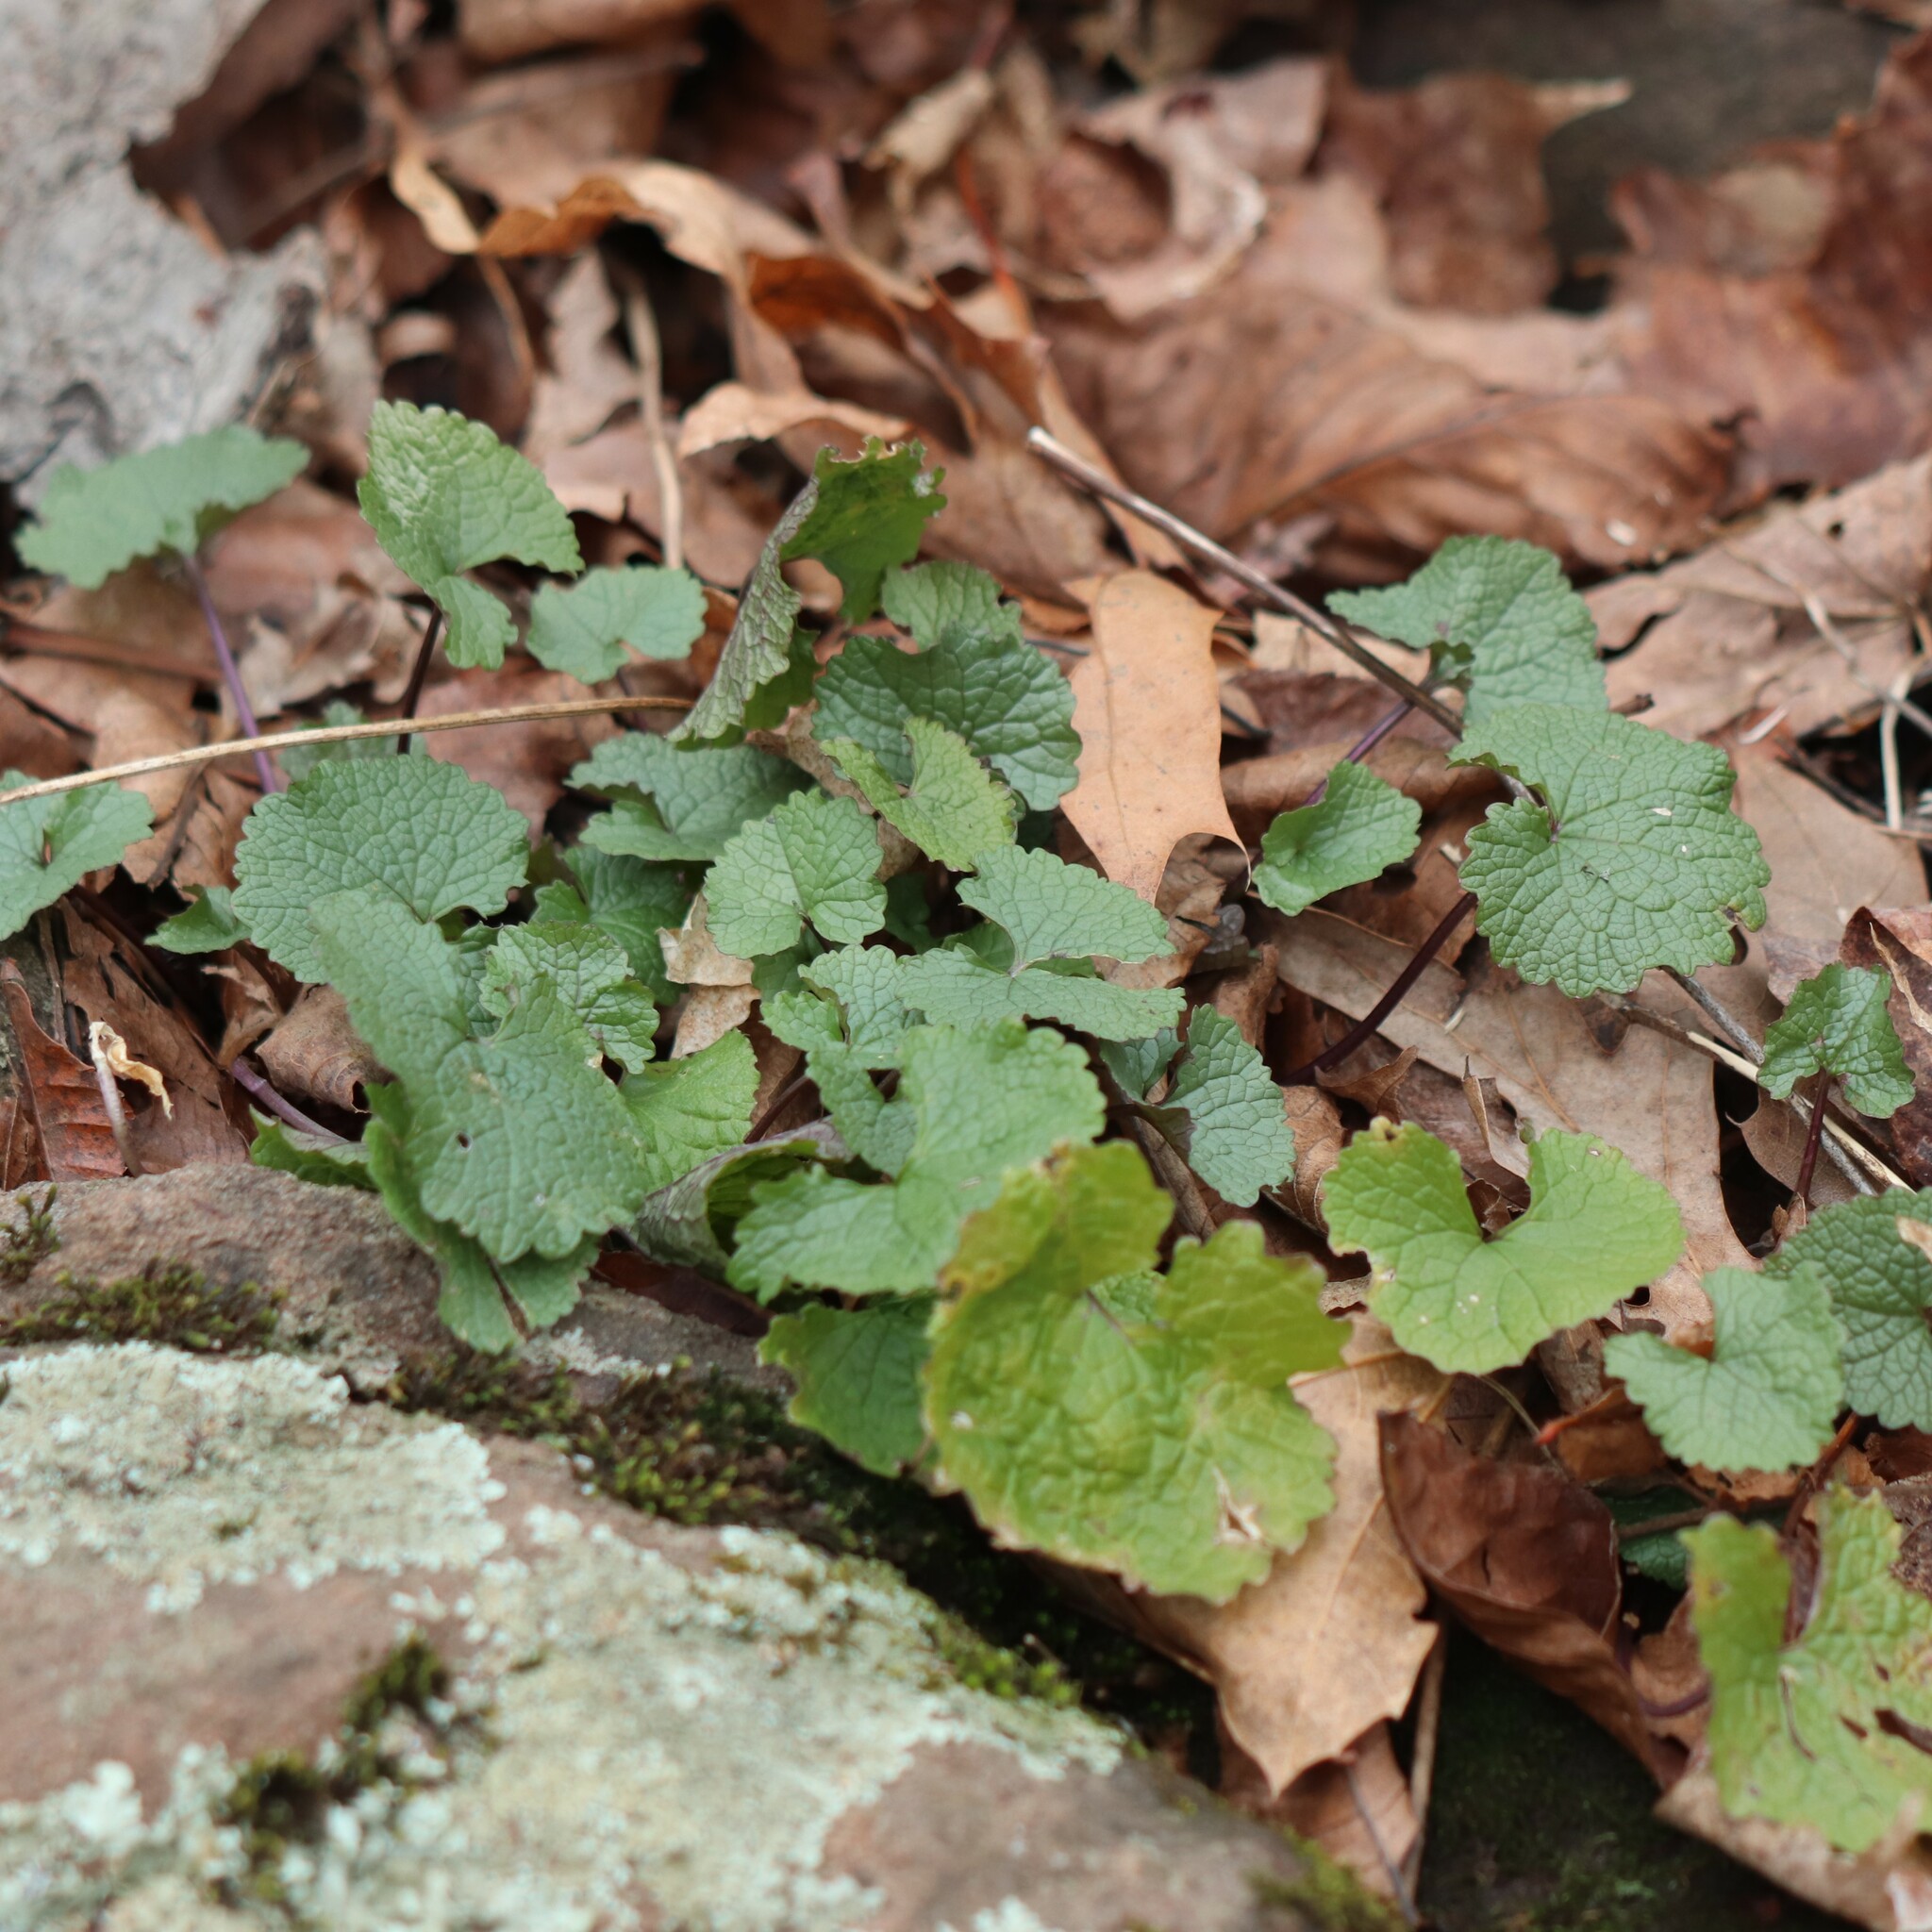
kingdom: Plantae
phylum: Tracheophyta
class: Magnoliopsida
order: Brassicales
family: Brassicaceae
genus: Alliaria
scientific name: Alliaria petiolata
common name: Garlic mustard
